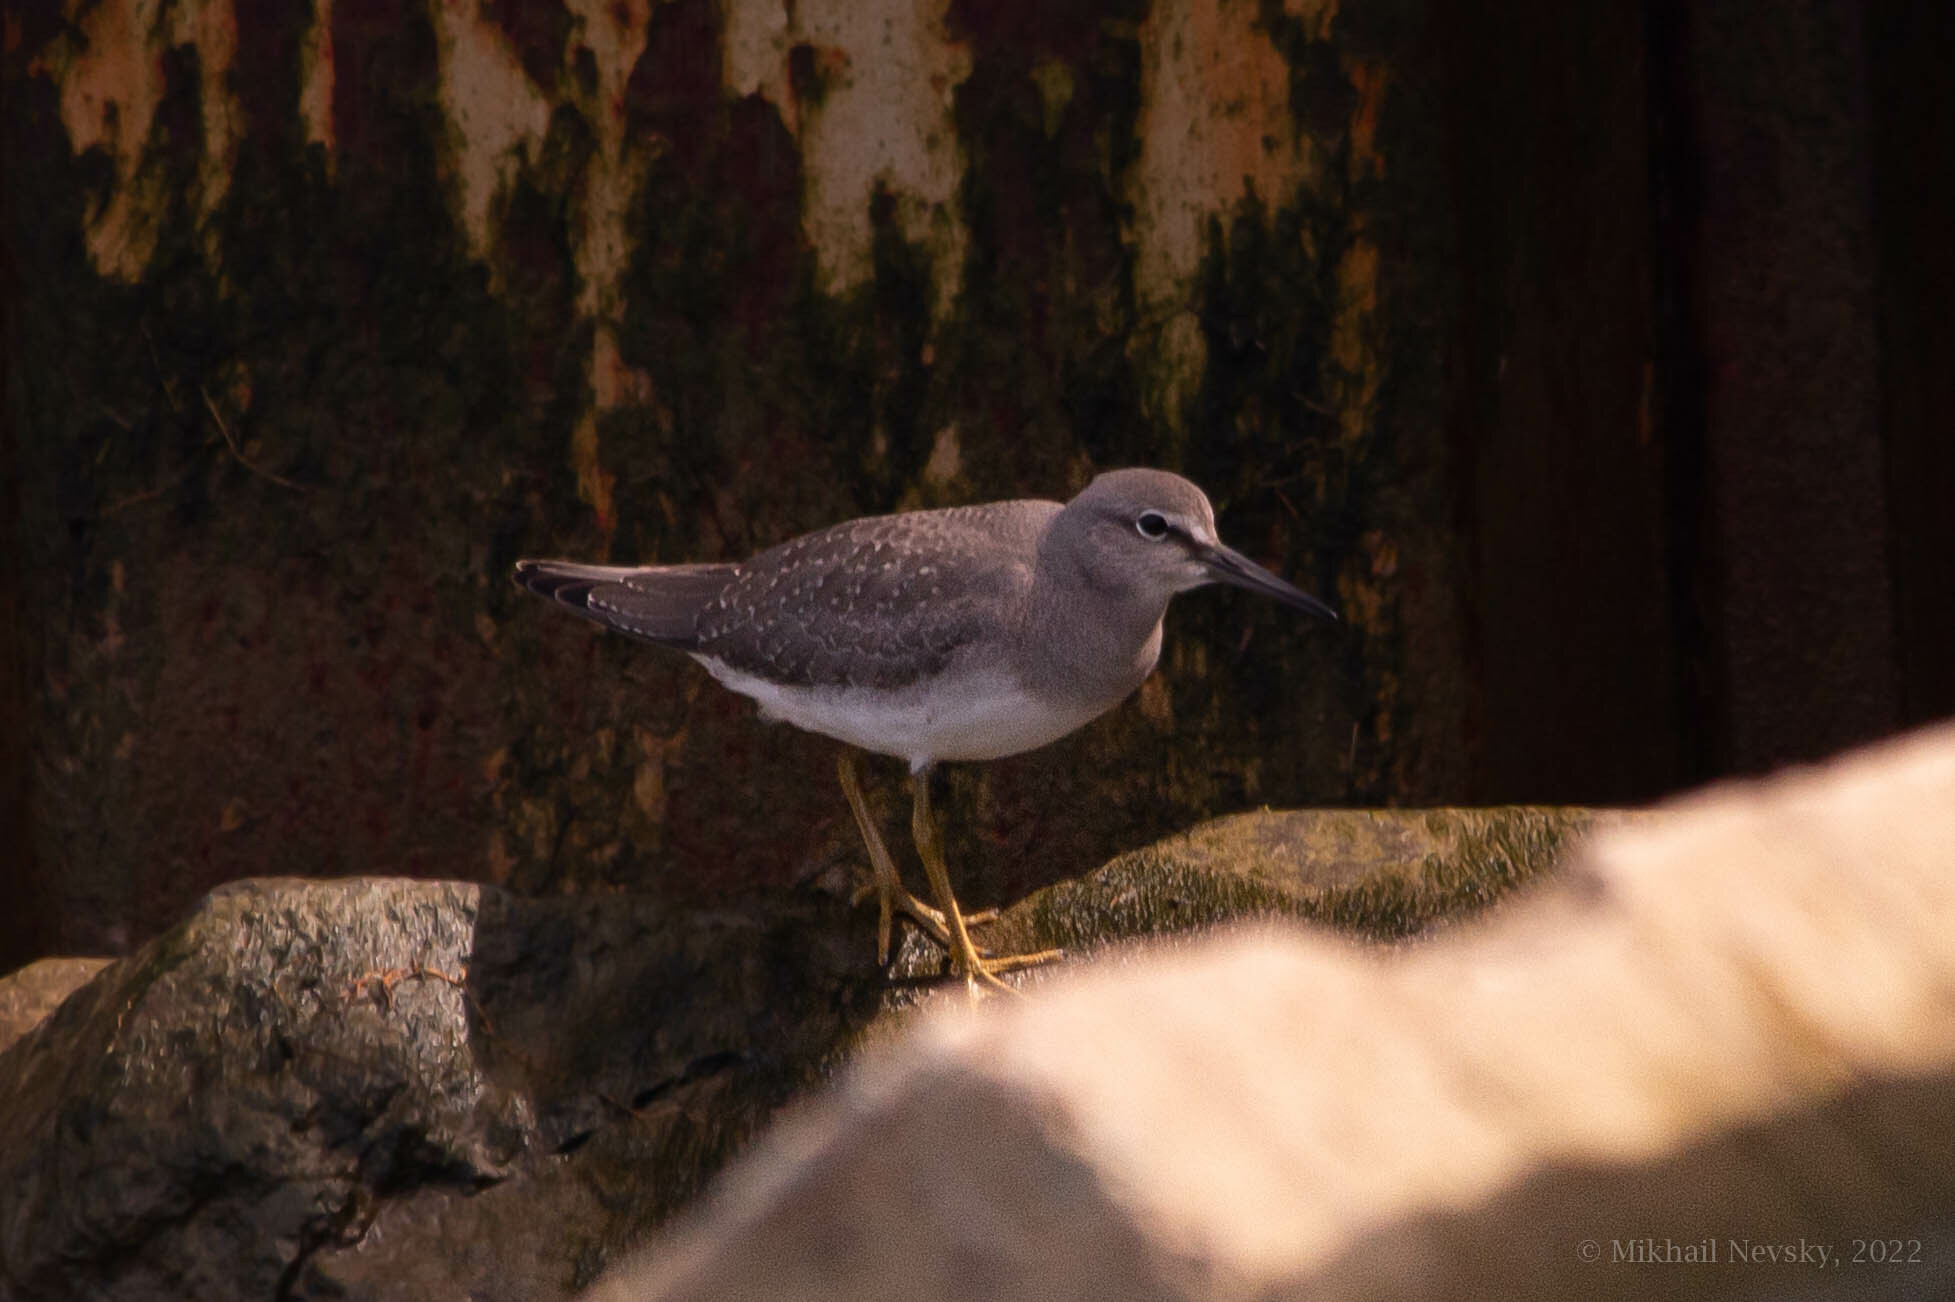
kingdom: Animalia
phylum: Chordata
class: Aves
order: Charadriiformes
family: Scolopacidae
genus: Tringa
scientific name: Tringa brevipes
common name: Grey-tailed tattler
